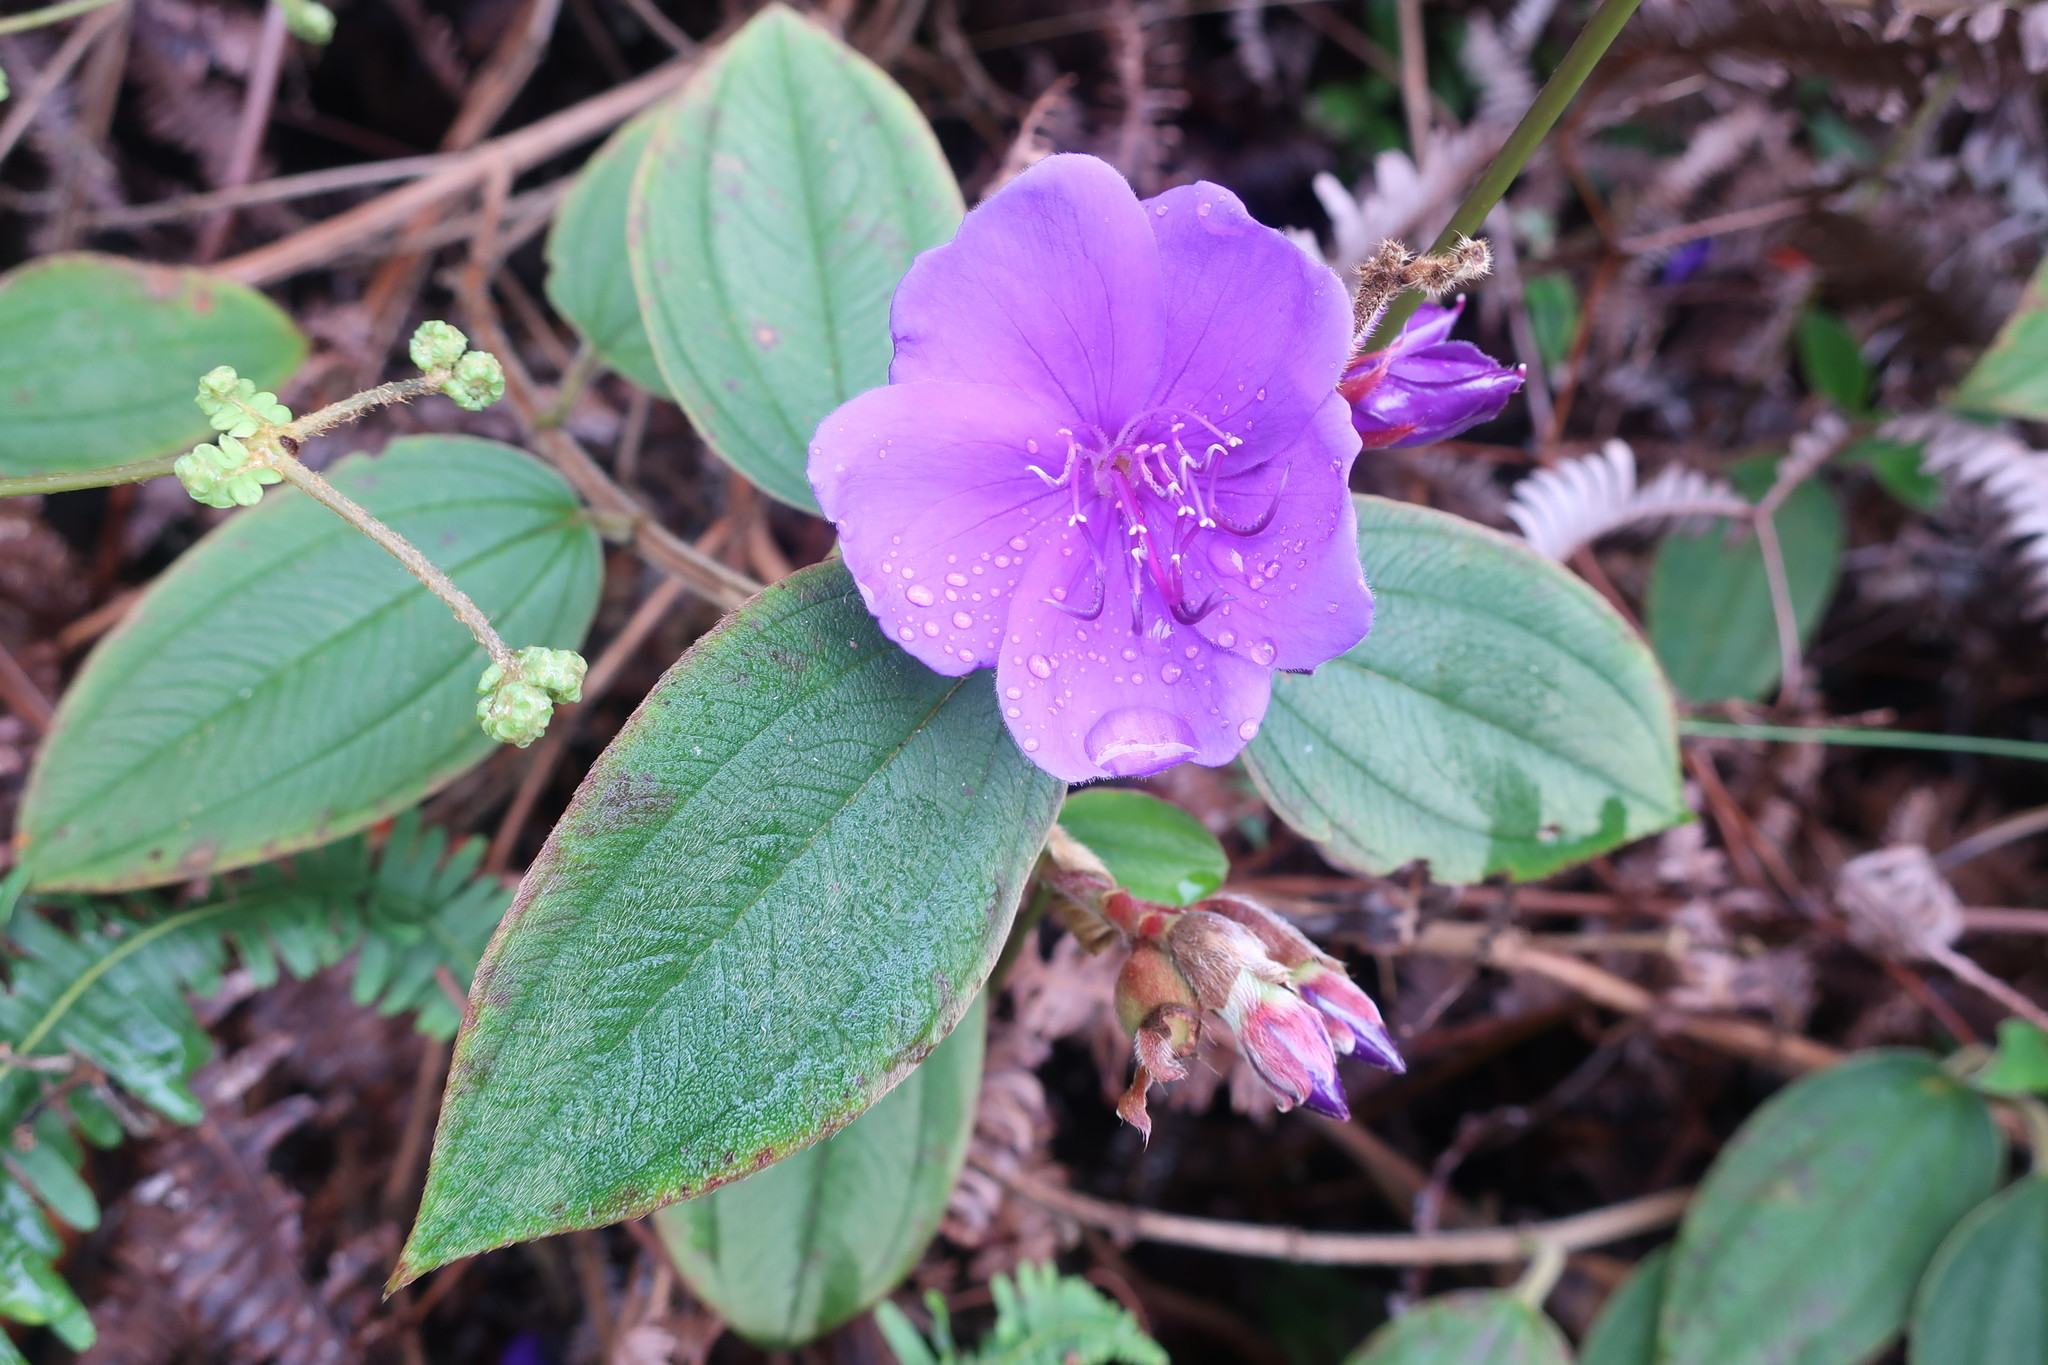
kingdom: Plantae
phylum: Tracheophyta
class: Magnoliopsida
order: Myrtales
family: Melastomataceae
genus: Pleroma
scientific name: Pleroma urvilleanum
